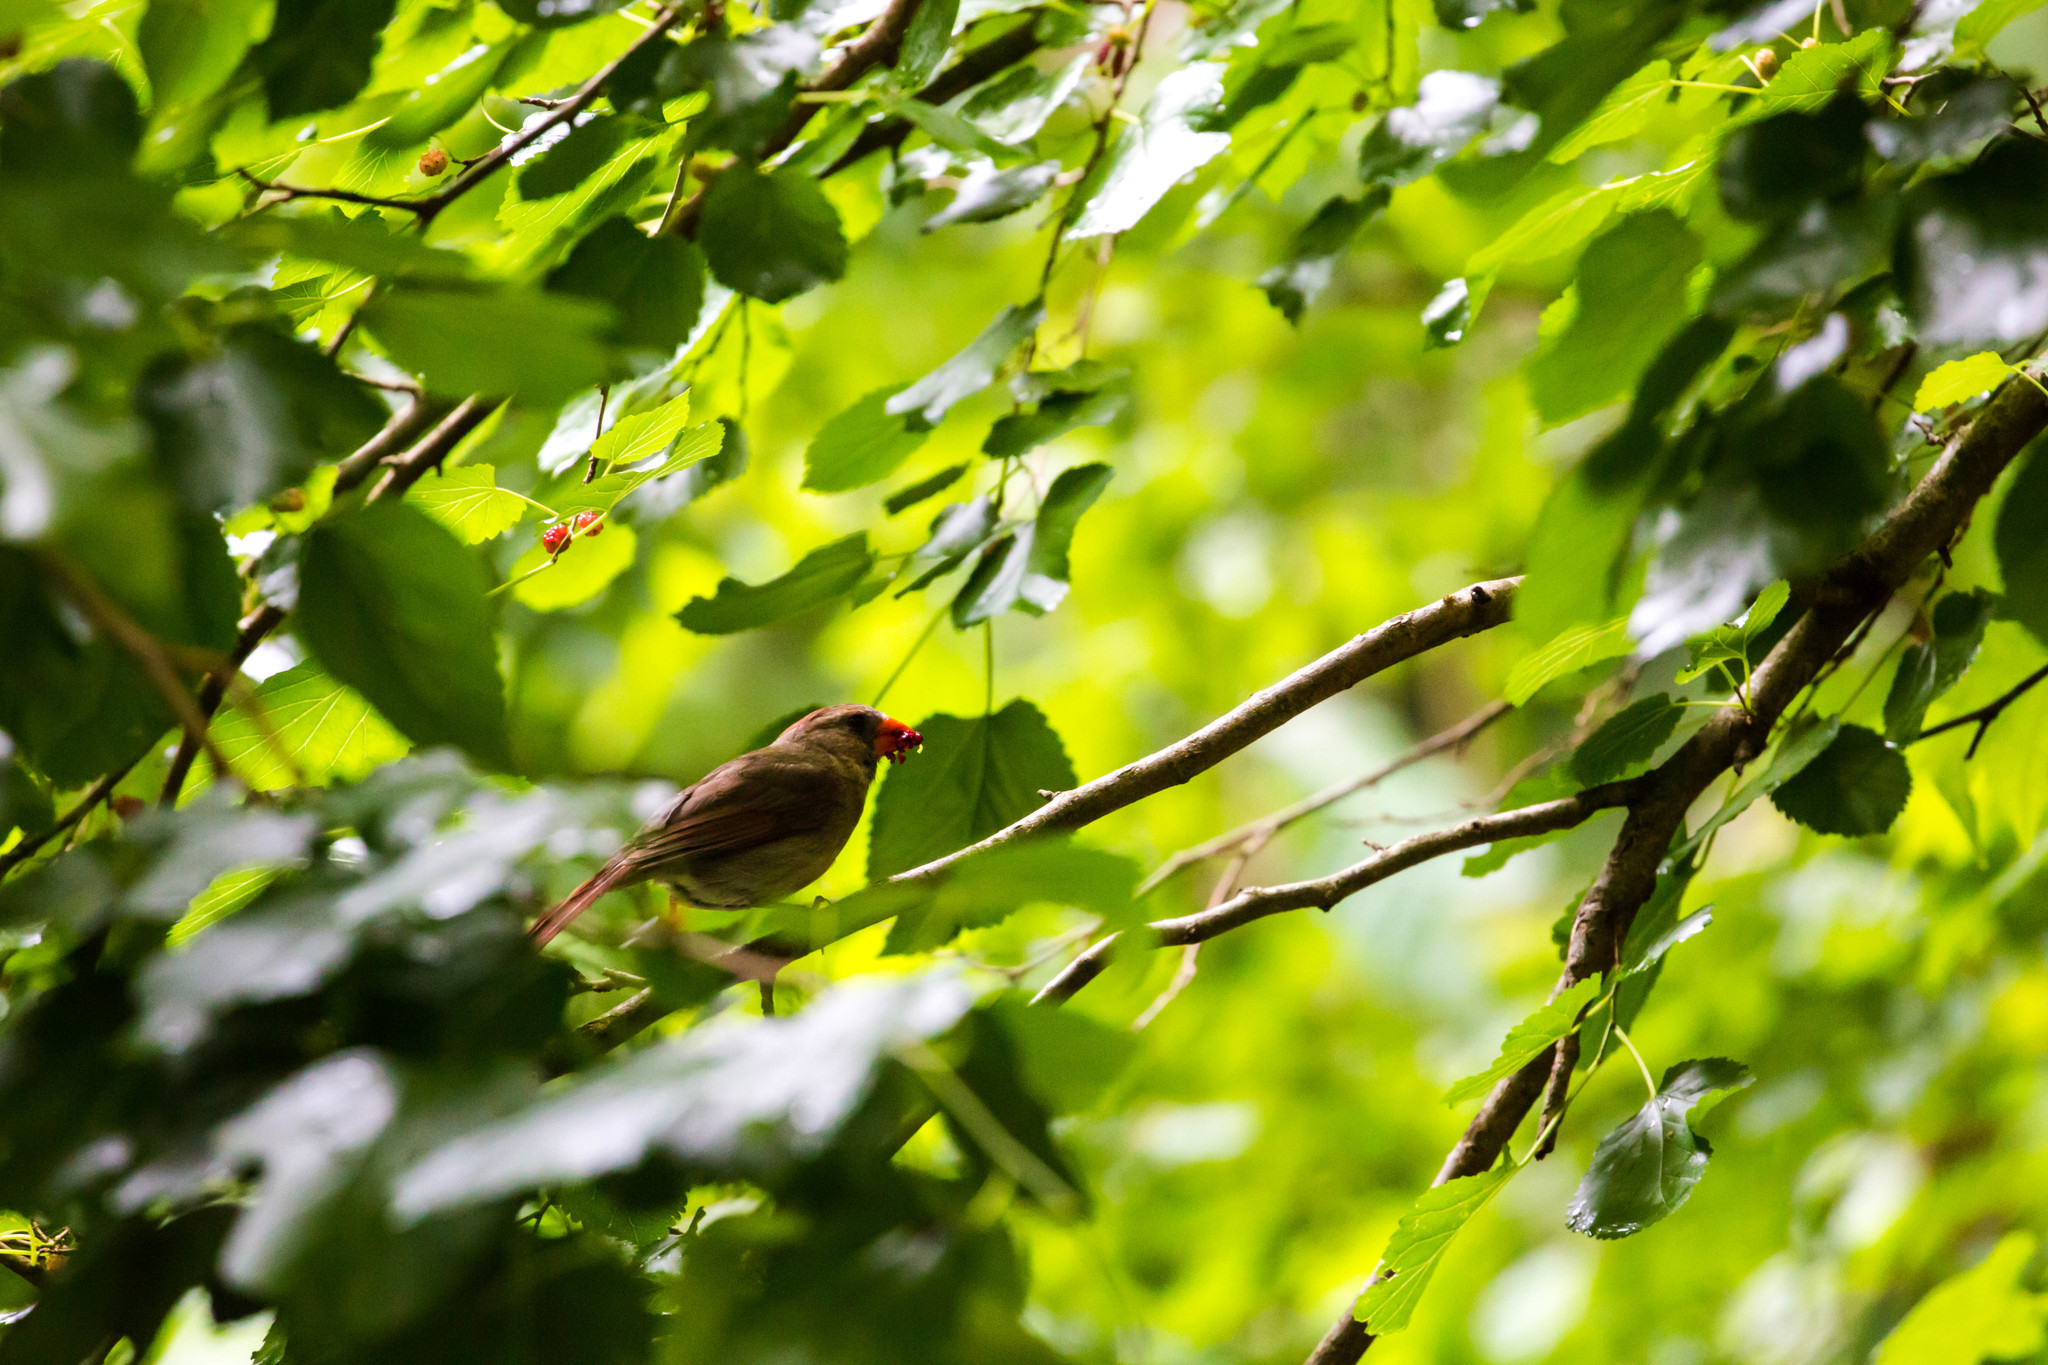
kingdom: Animalia
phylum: Chordata
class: Aves
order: Passeriformes
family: Cardinalidae
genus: Cardinalis
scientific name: Cardinalis cardinalis
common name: Northern cardinal
